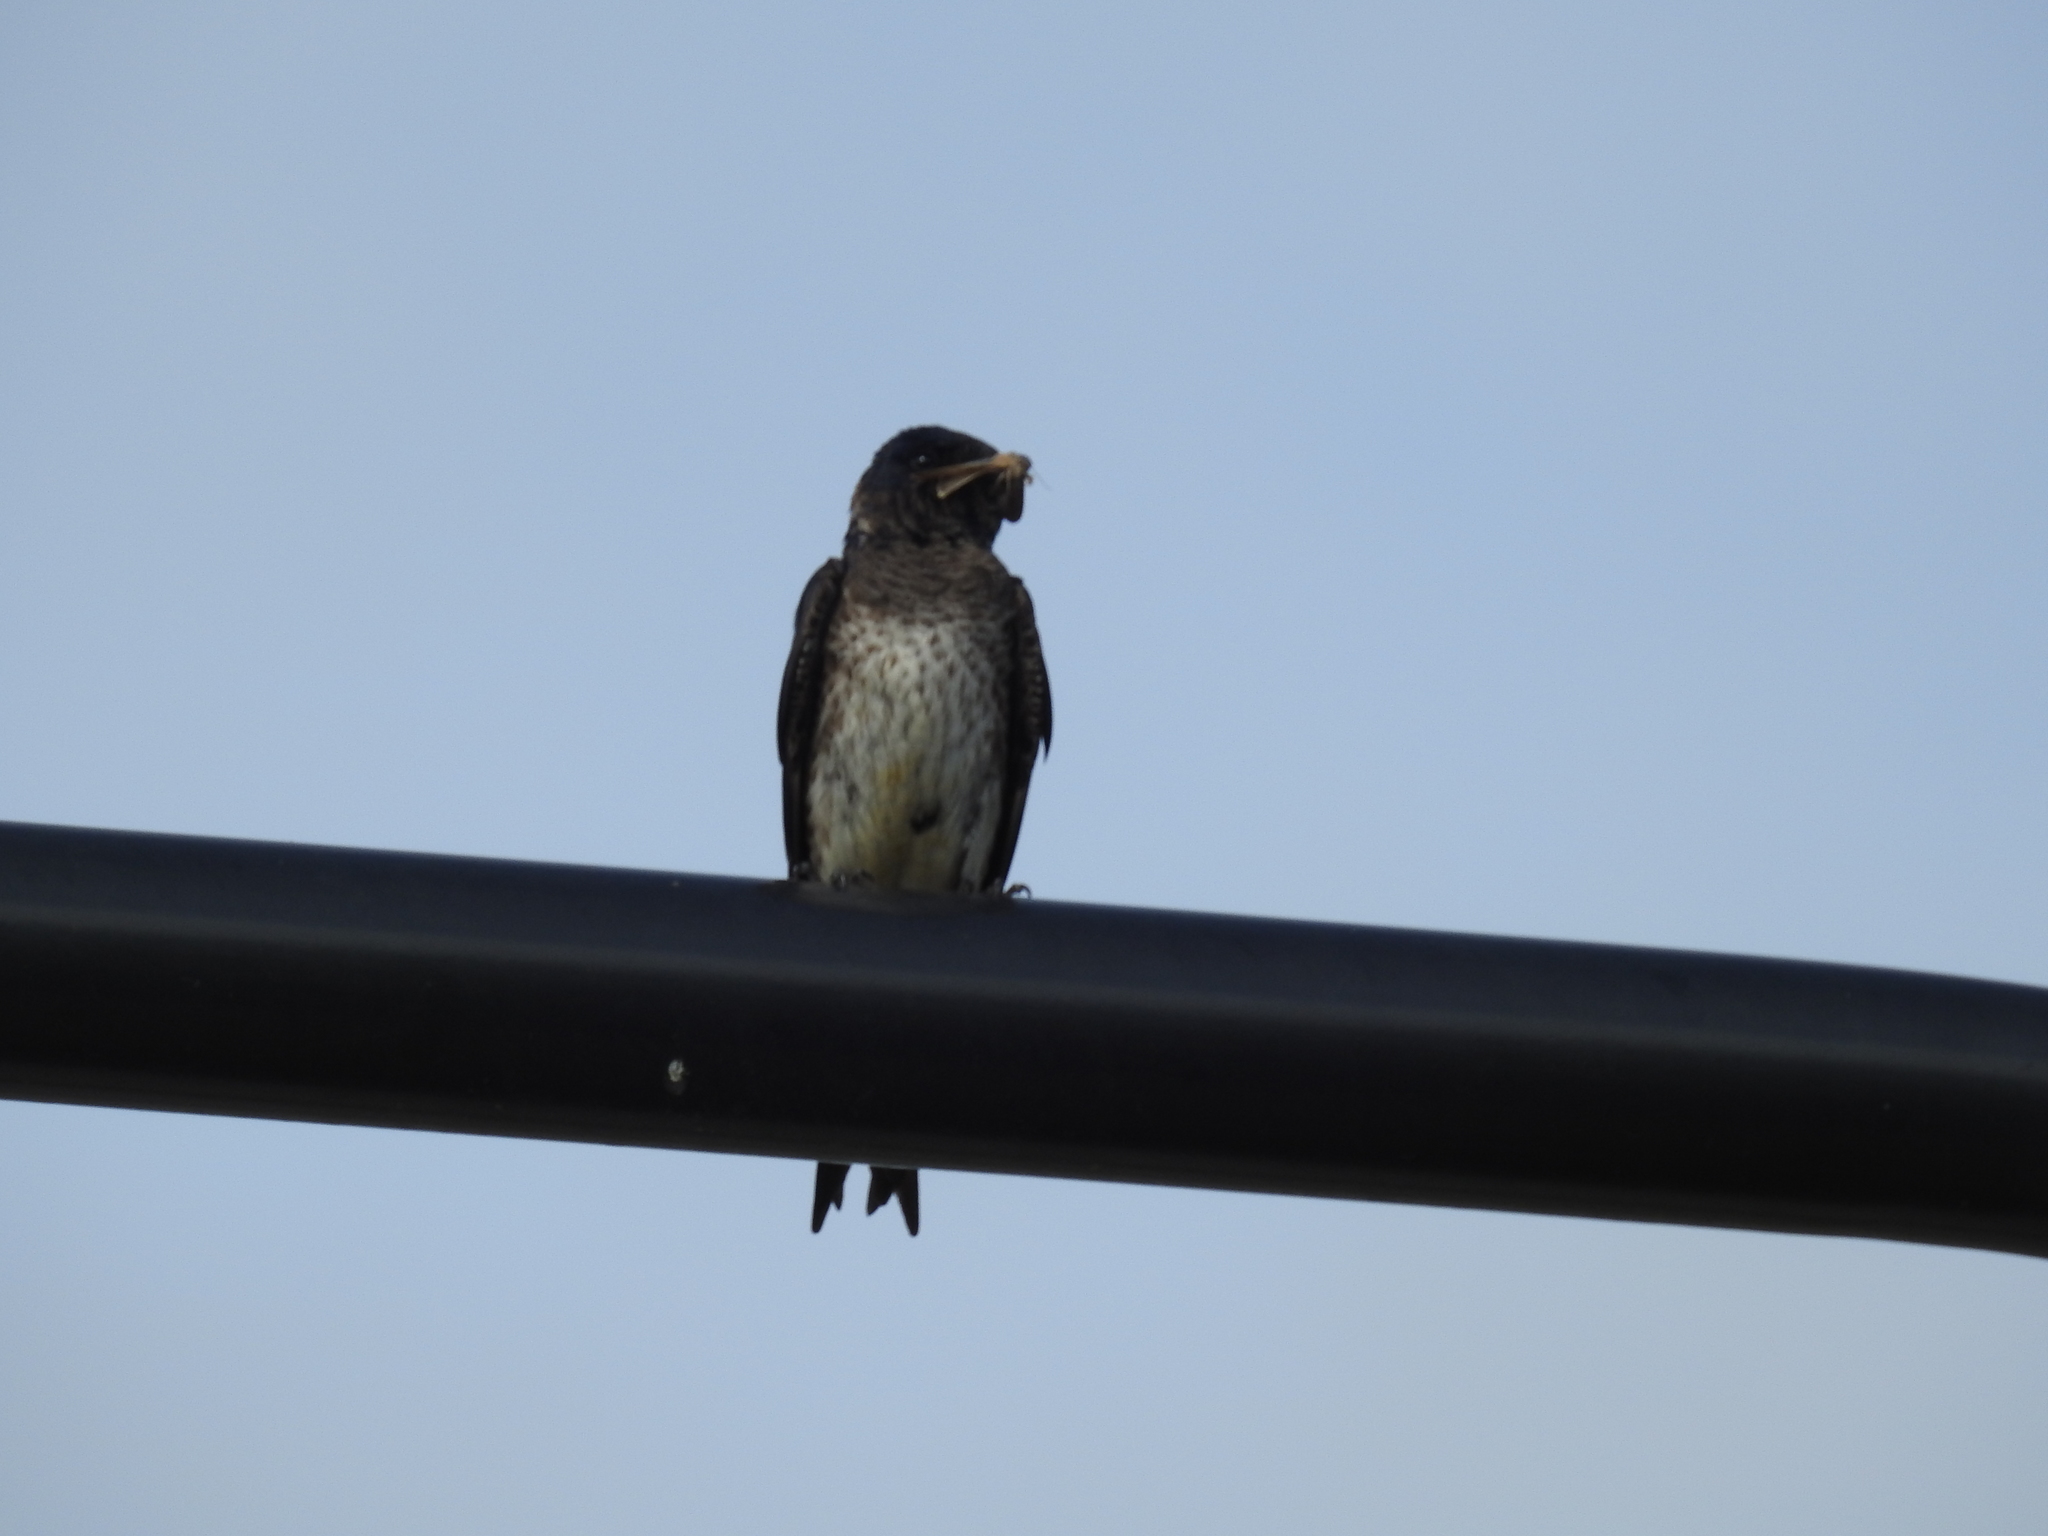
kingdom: Animalia
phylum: Chordata
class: Aves
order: Passeriformes
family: Hirundinidae
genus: Progne
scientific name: Progne subis
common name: Purple martin
